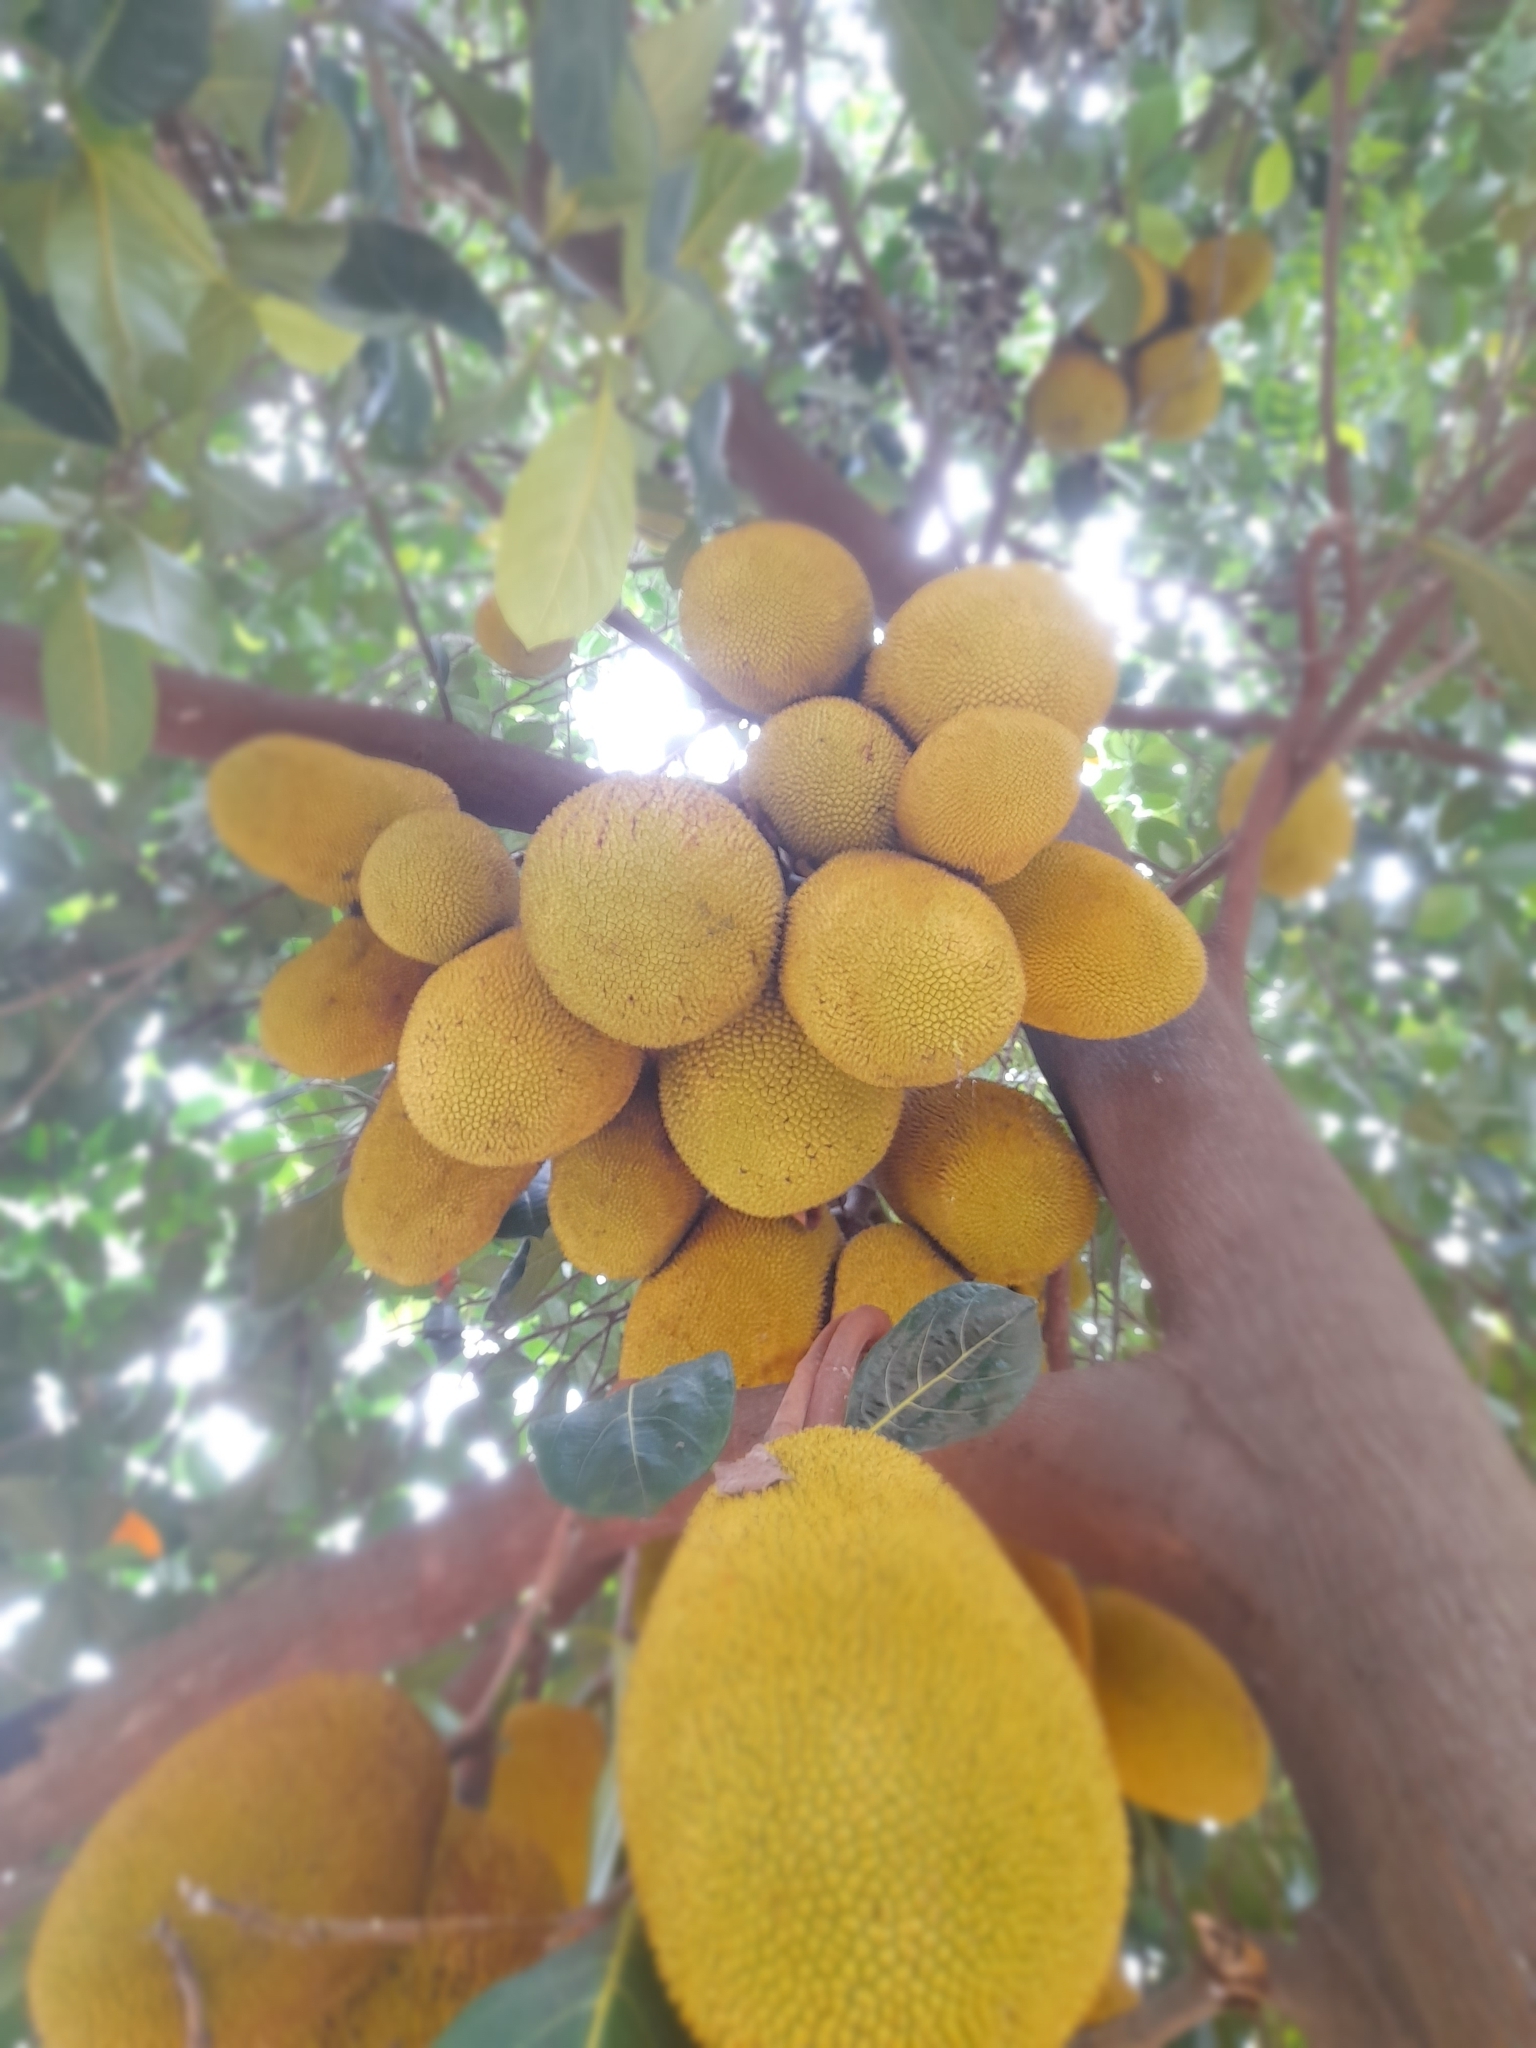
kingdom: Plantae
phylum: Tracheophyta
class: Magnoliopsida
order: Rosales
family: Moraceae
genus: Artocarpus
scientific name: Artocarpus heterophyllus
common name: Jackfruit
